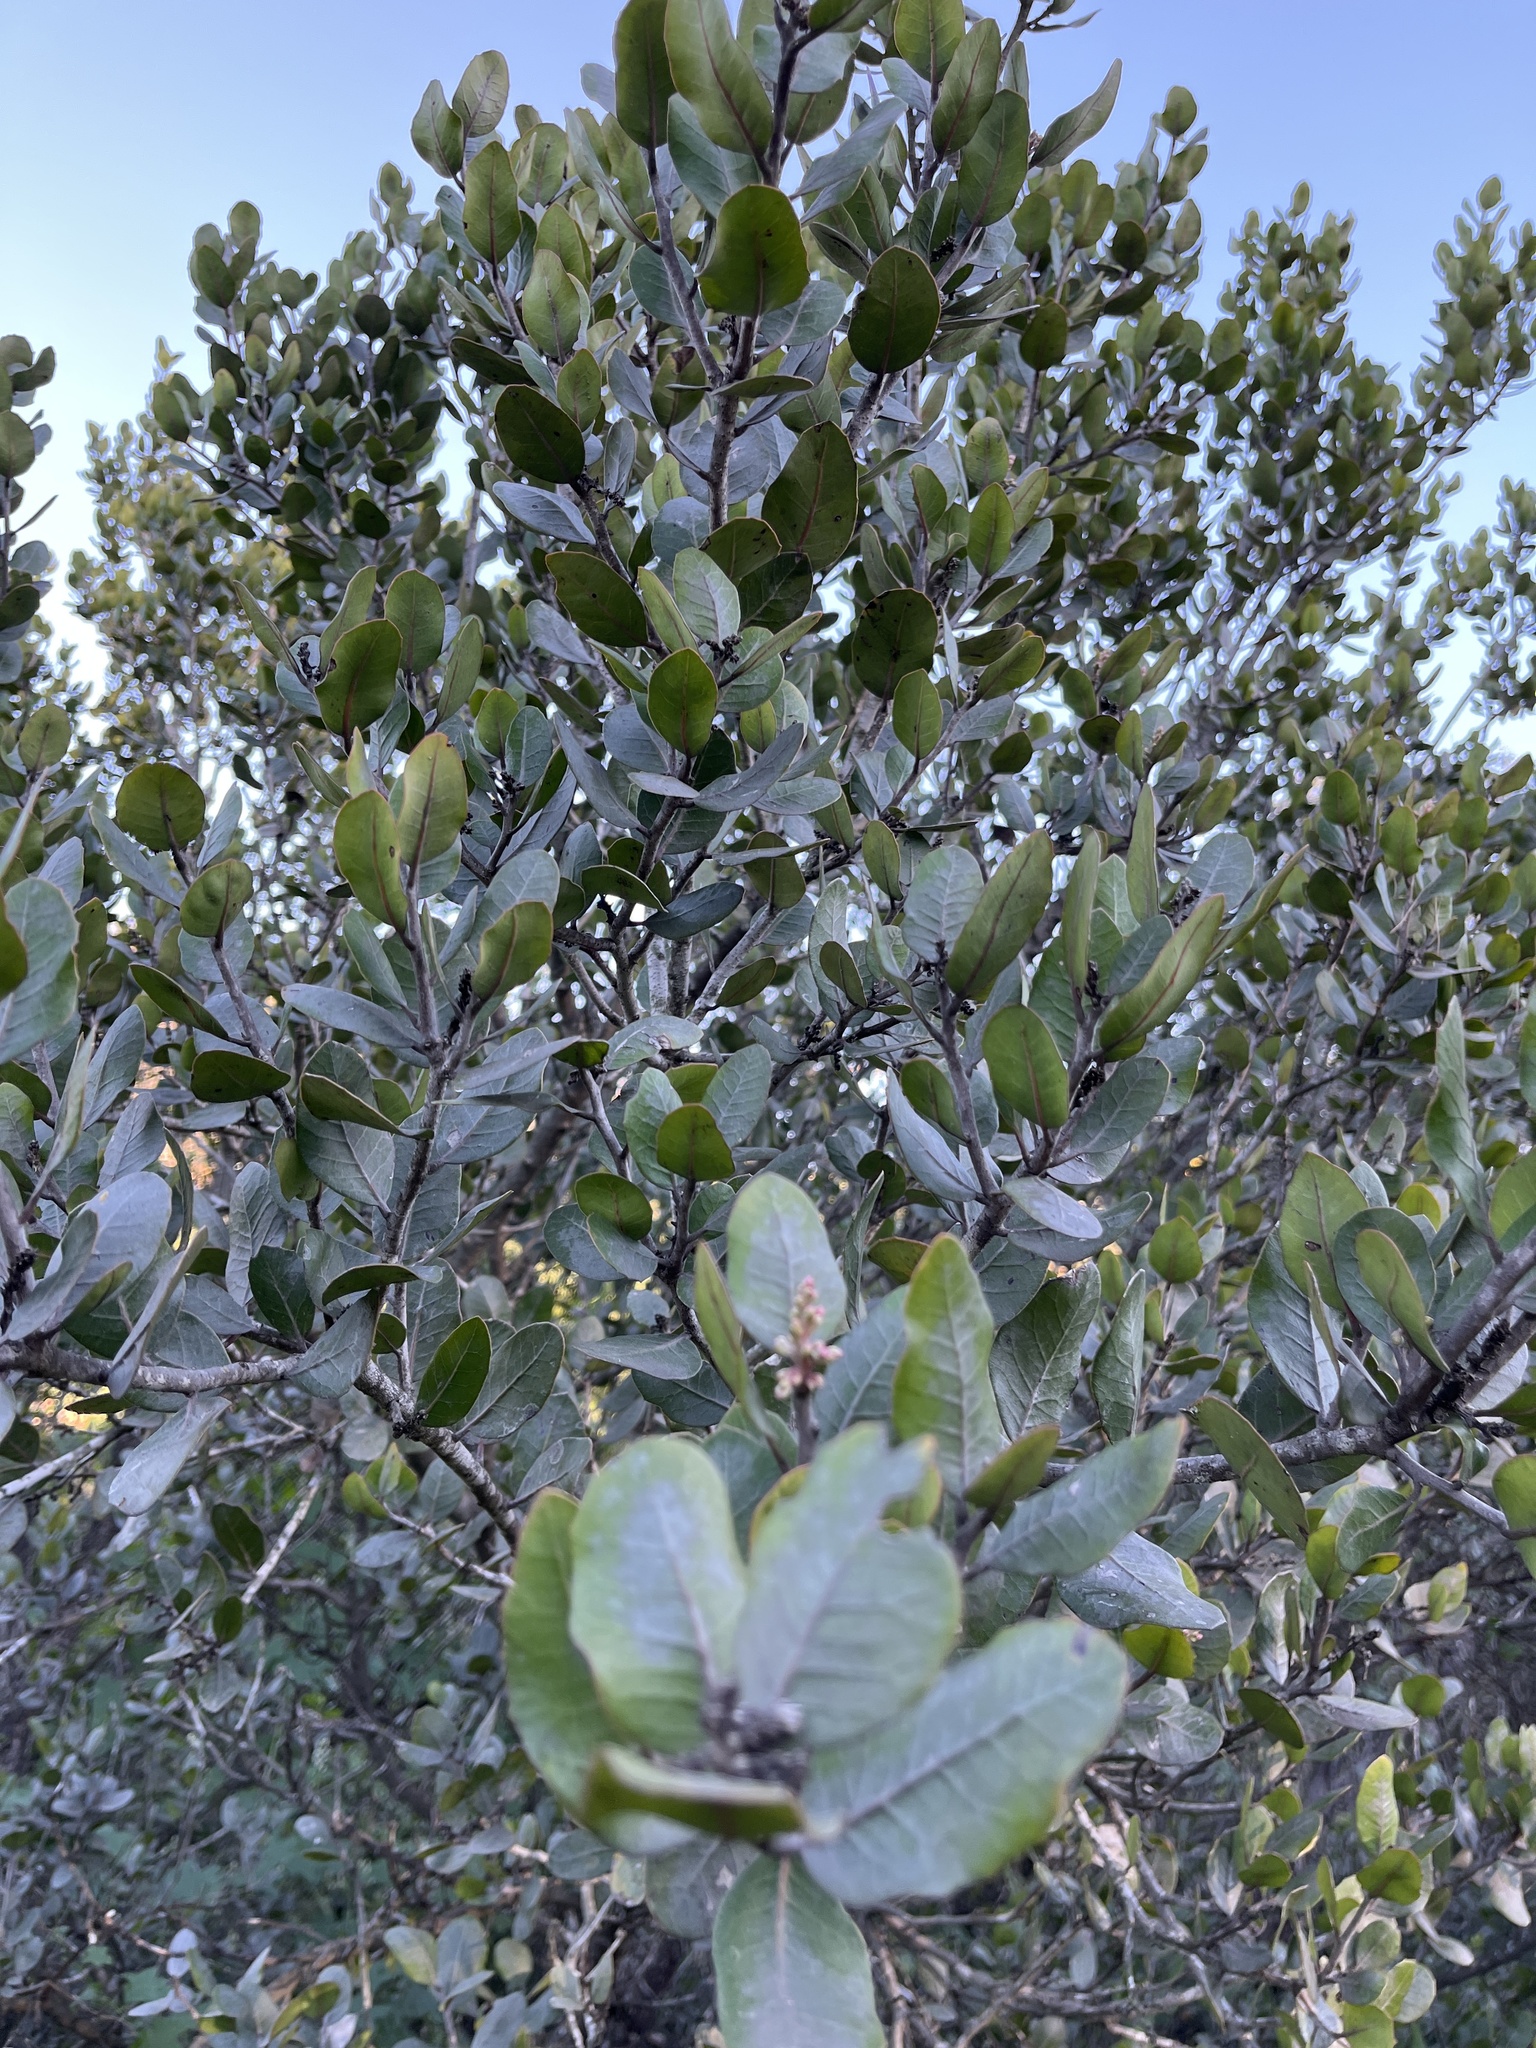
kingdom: Plantae
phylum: Tracheophyta
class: Magnoliopsida
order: Sapindales
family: Anacardiaceae
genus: Rhus
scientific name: Rhus integrifolia
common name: Lemonade sumac
